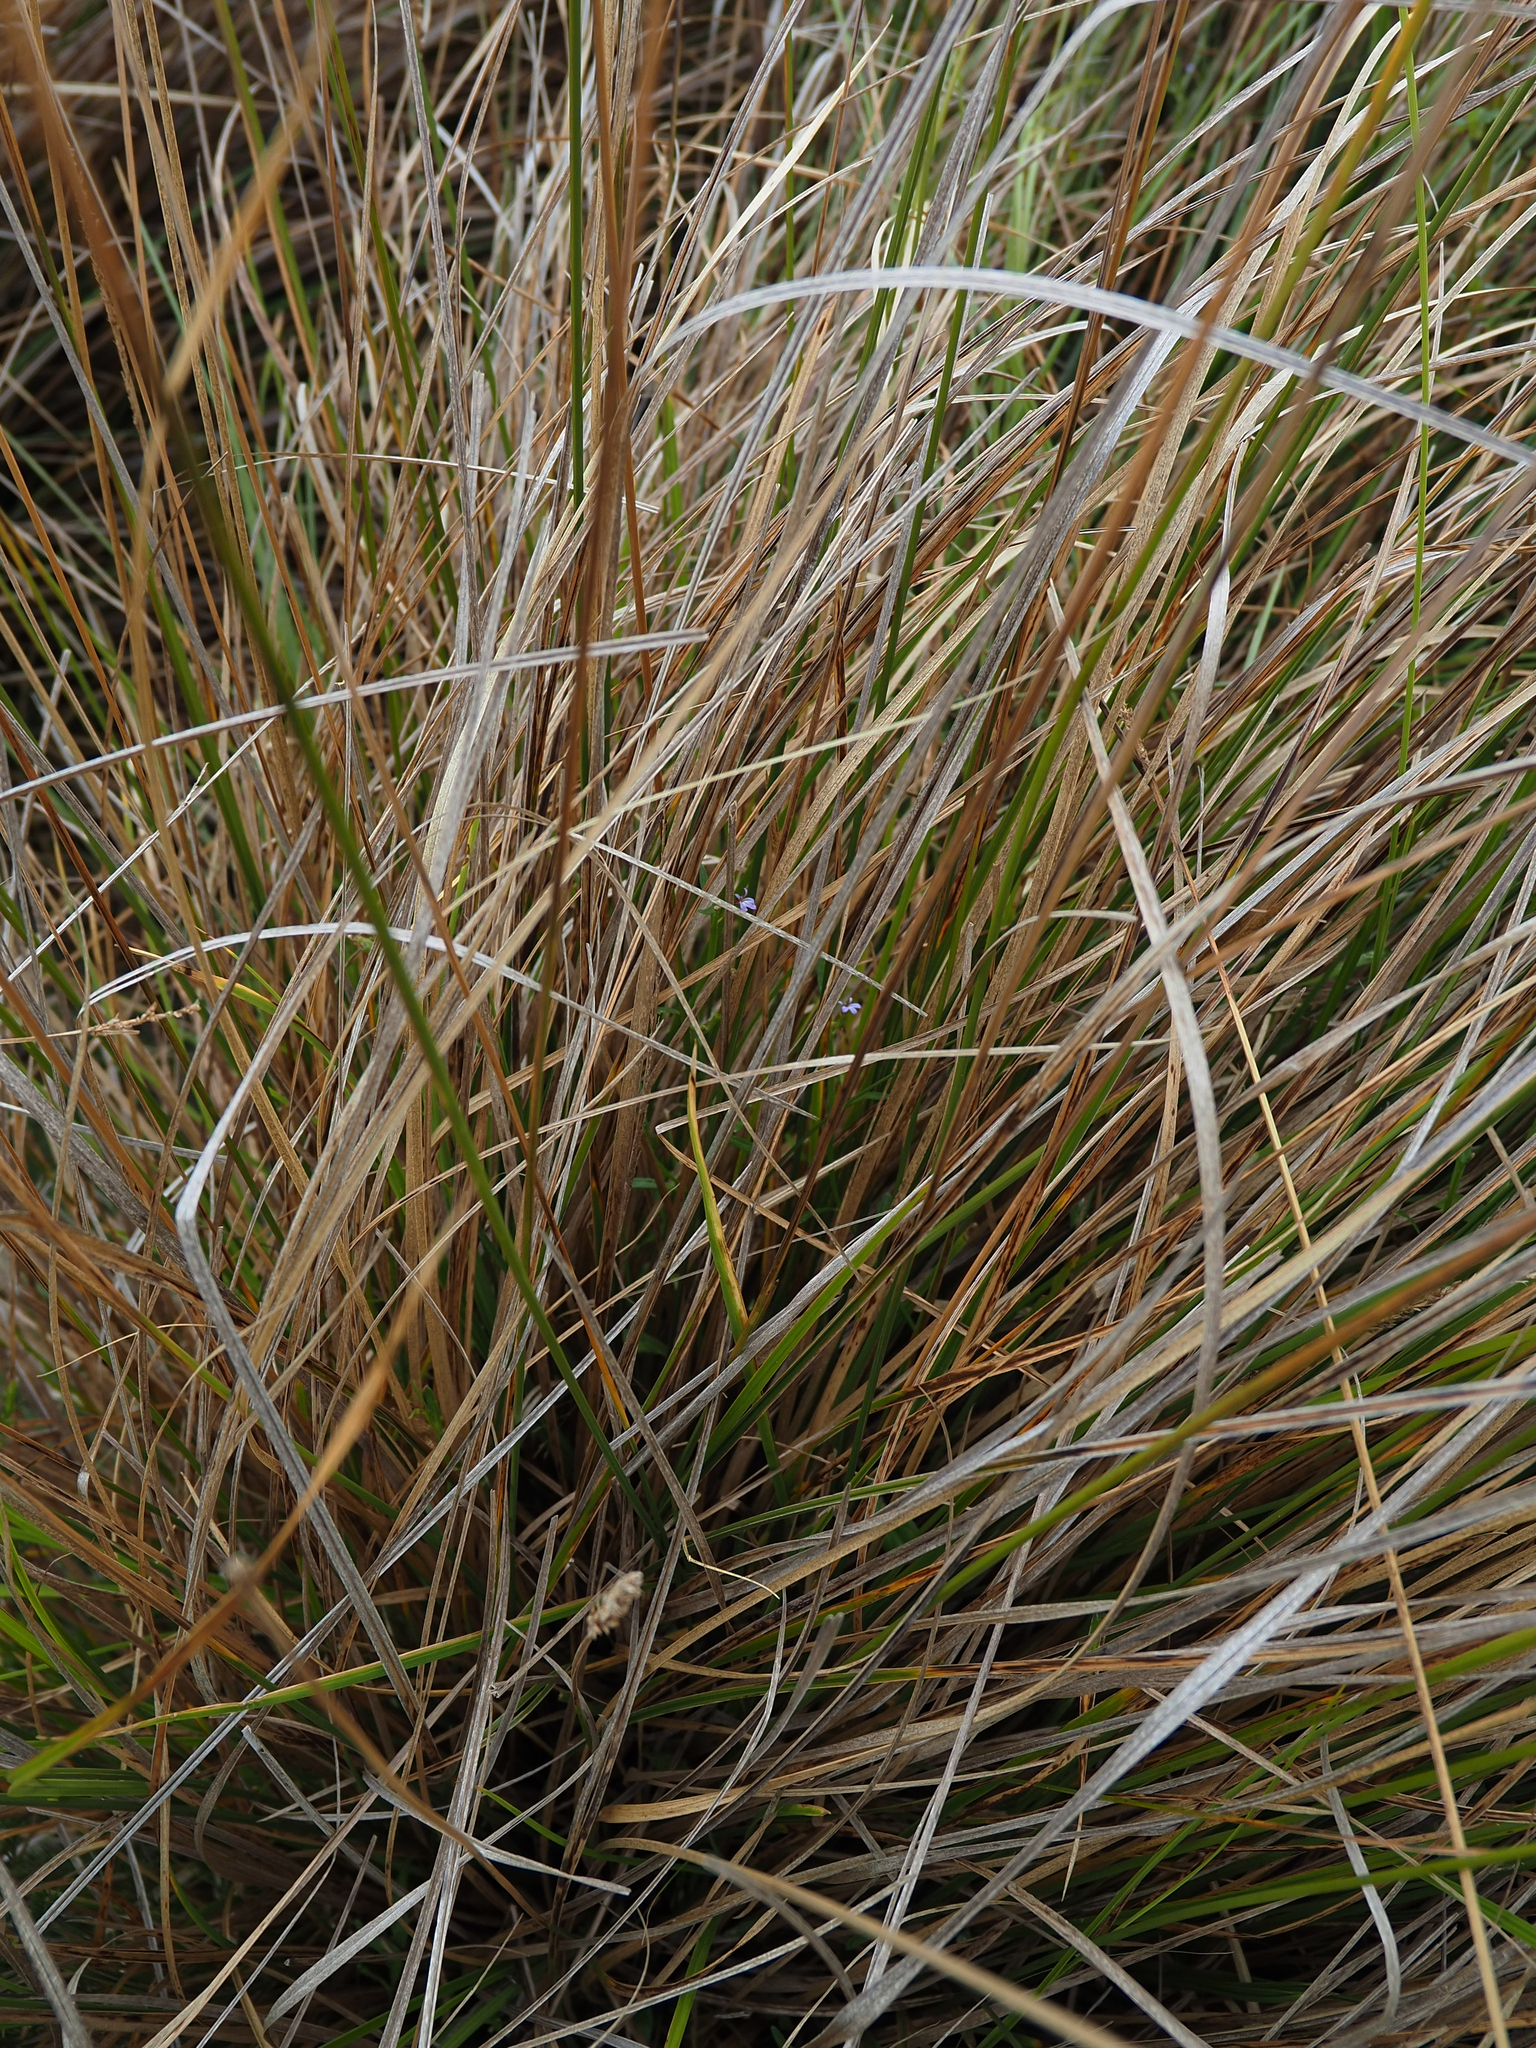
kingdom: Plantae
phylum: Tracheophyta
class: Magnoliopsida
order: Asterales
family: Campanulaceae
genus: Lobelia
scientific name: Lobelia anceps
